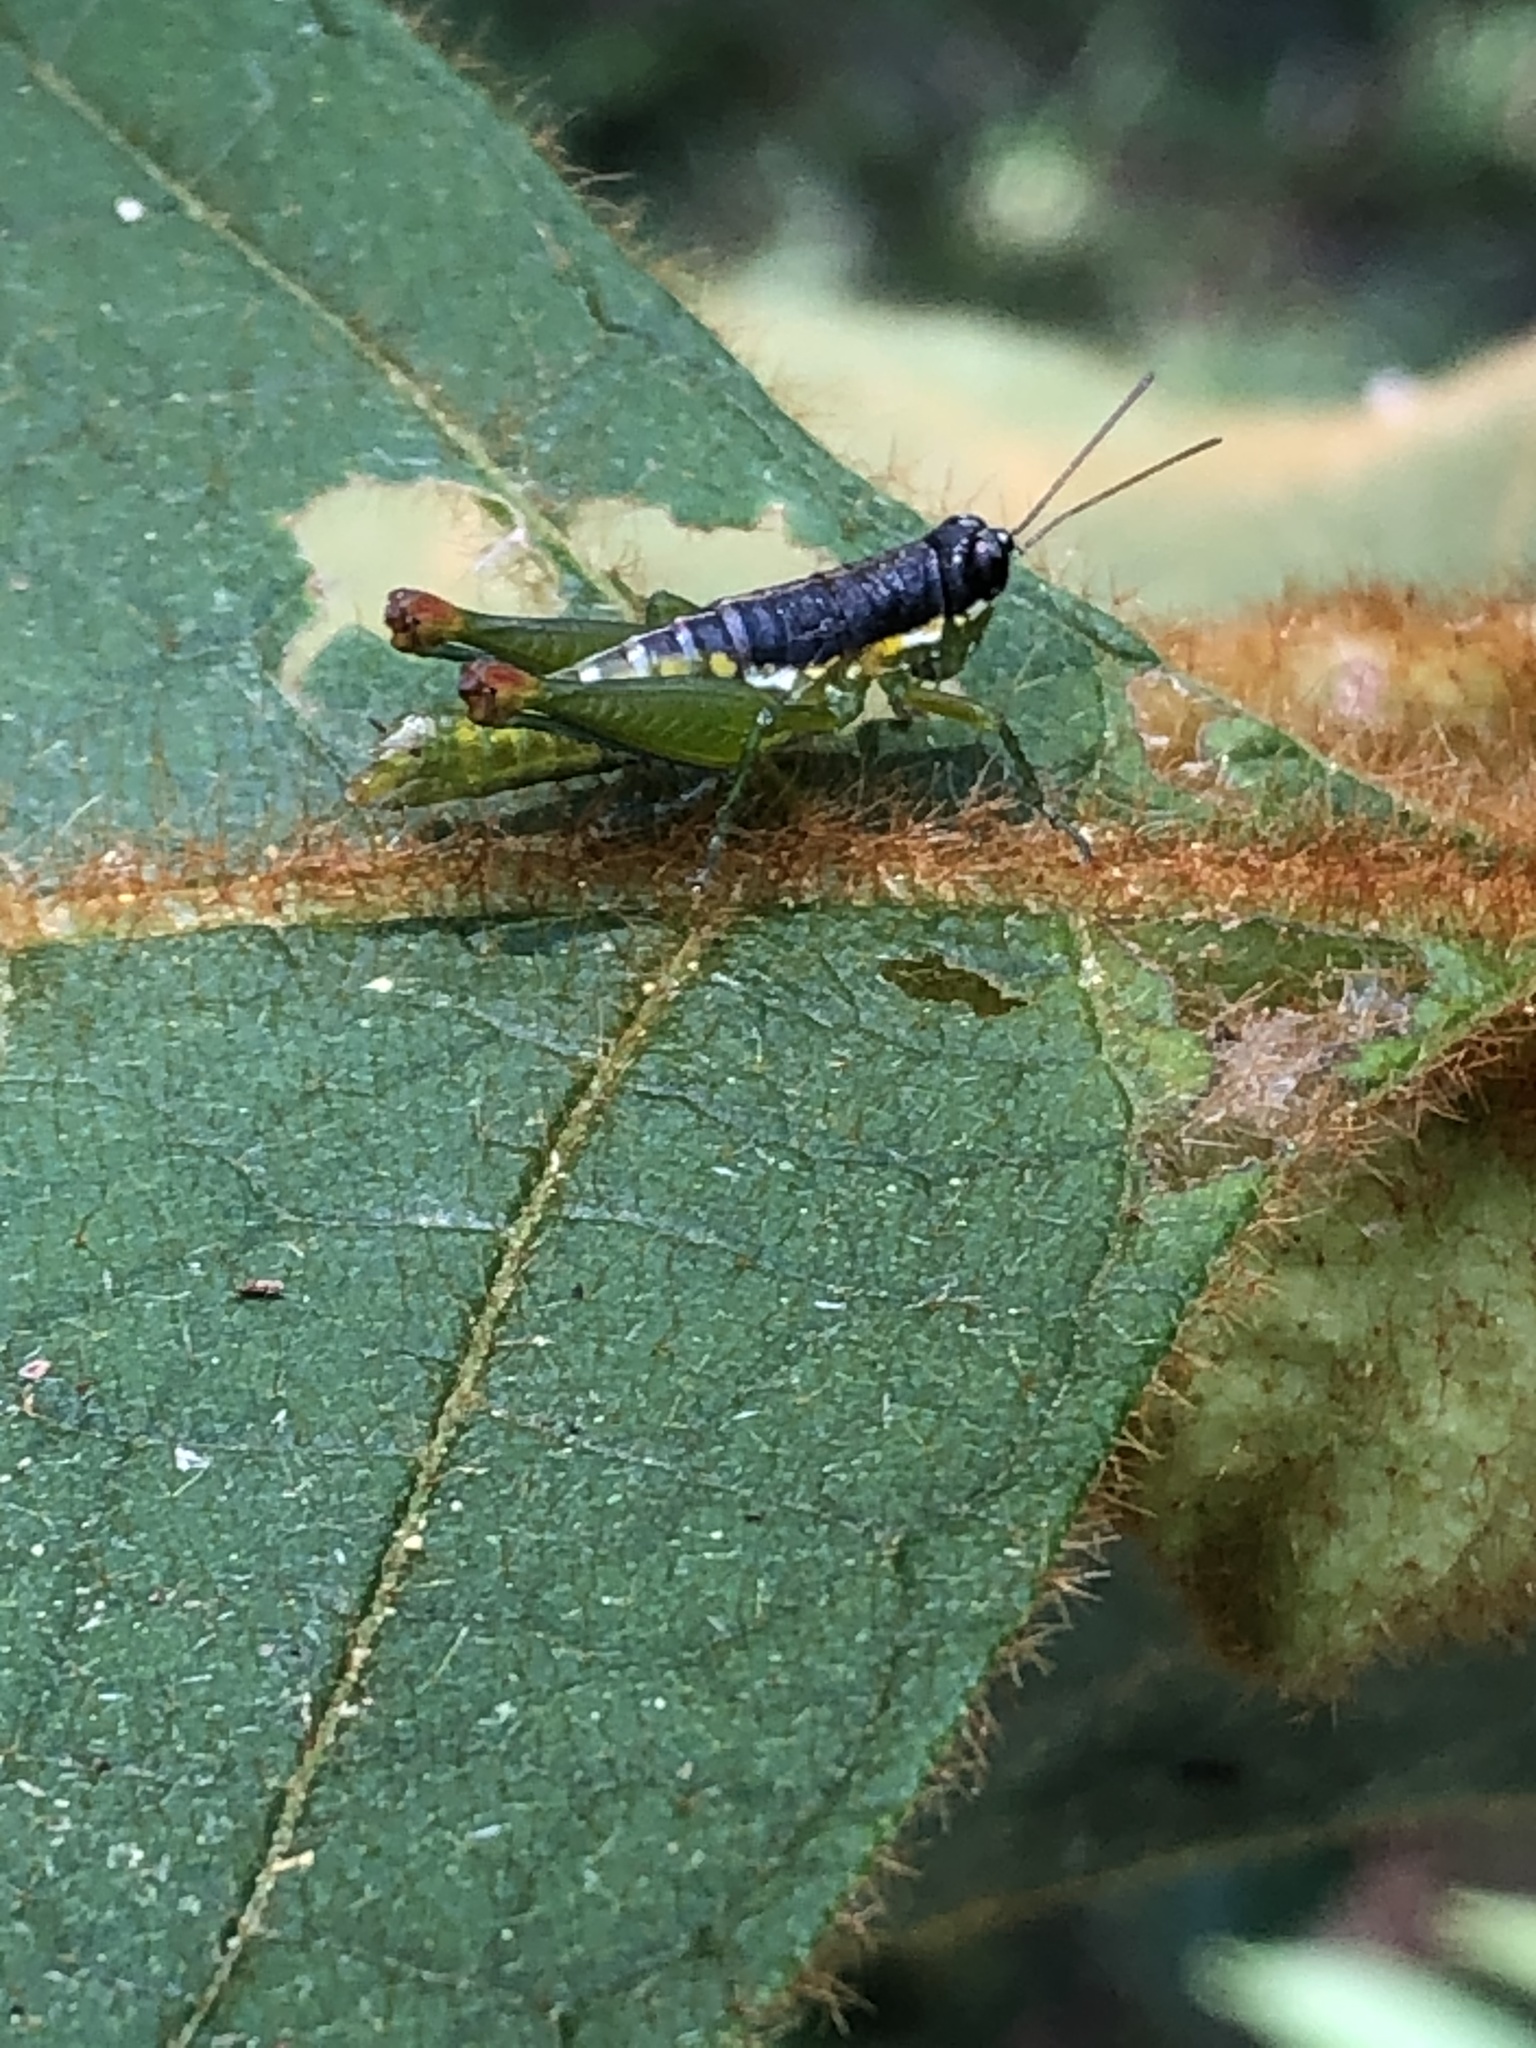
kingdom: Animalia
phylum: Arthropoda
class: Insecta
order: Orthoptera
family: Acrididae
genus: Liebermannacris
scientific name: Liebermannacris dorsualis
